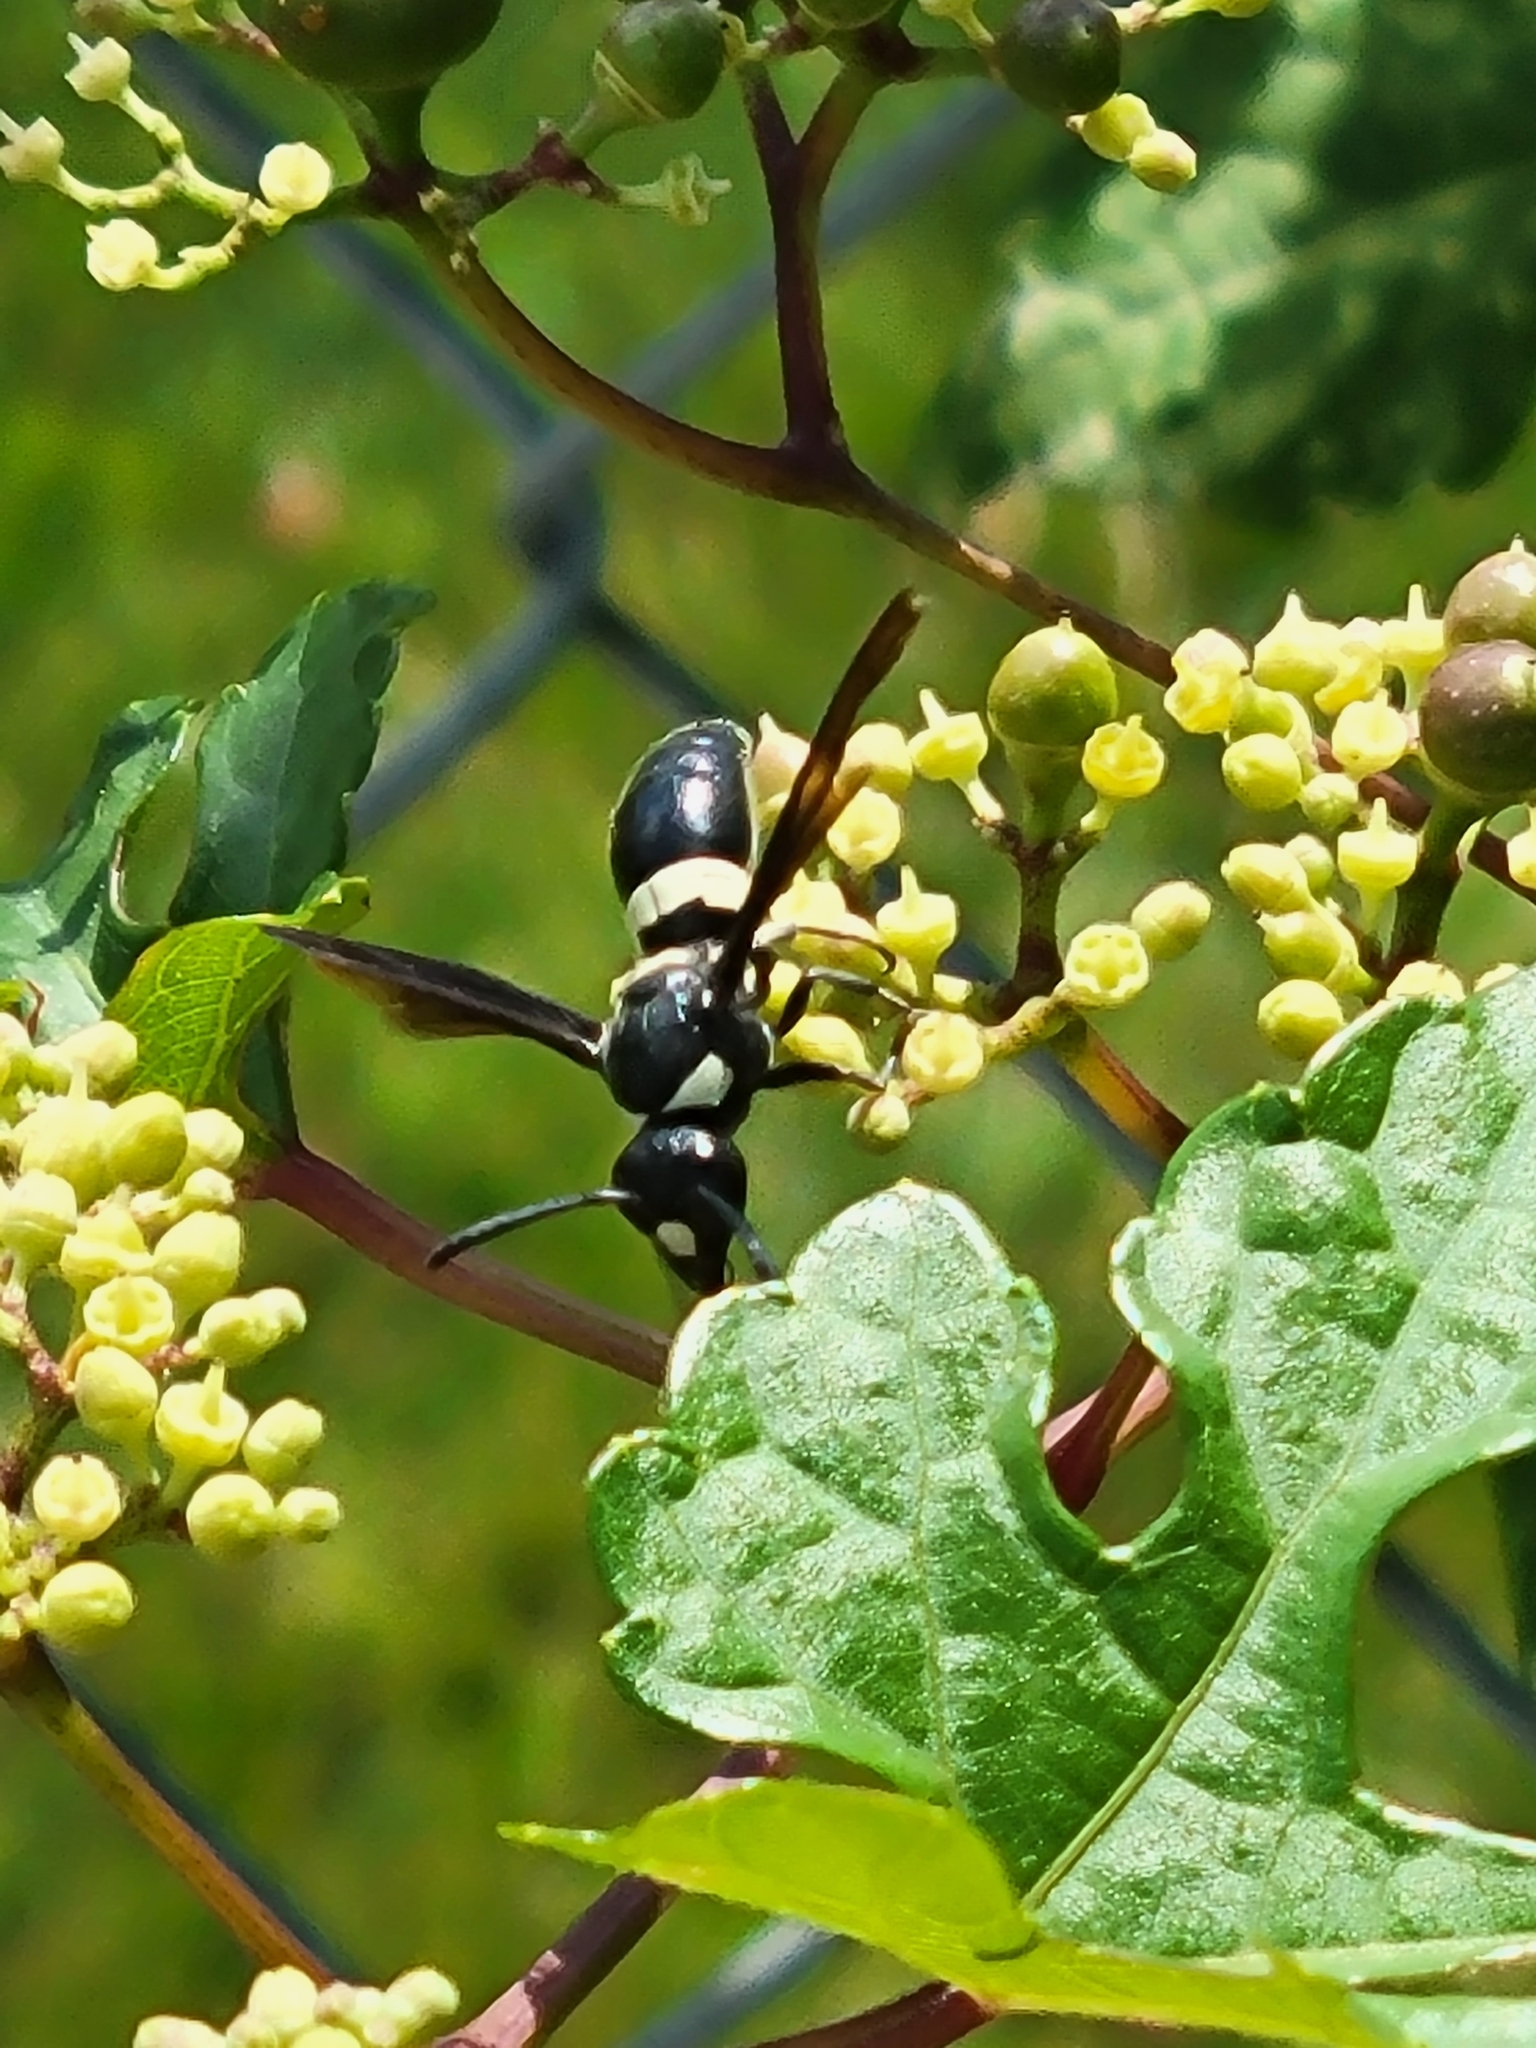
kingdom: Animalia
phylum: Arthropoda
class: Insecta
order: Hymenoptera
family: Eumenidae
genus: Monobia
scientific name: Monobia quadridens
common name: Four-toothed mason wasp
